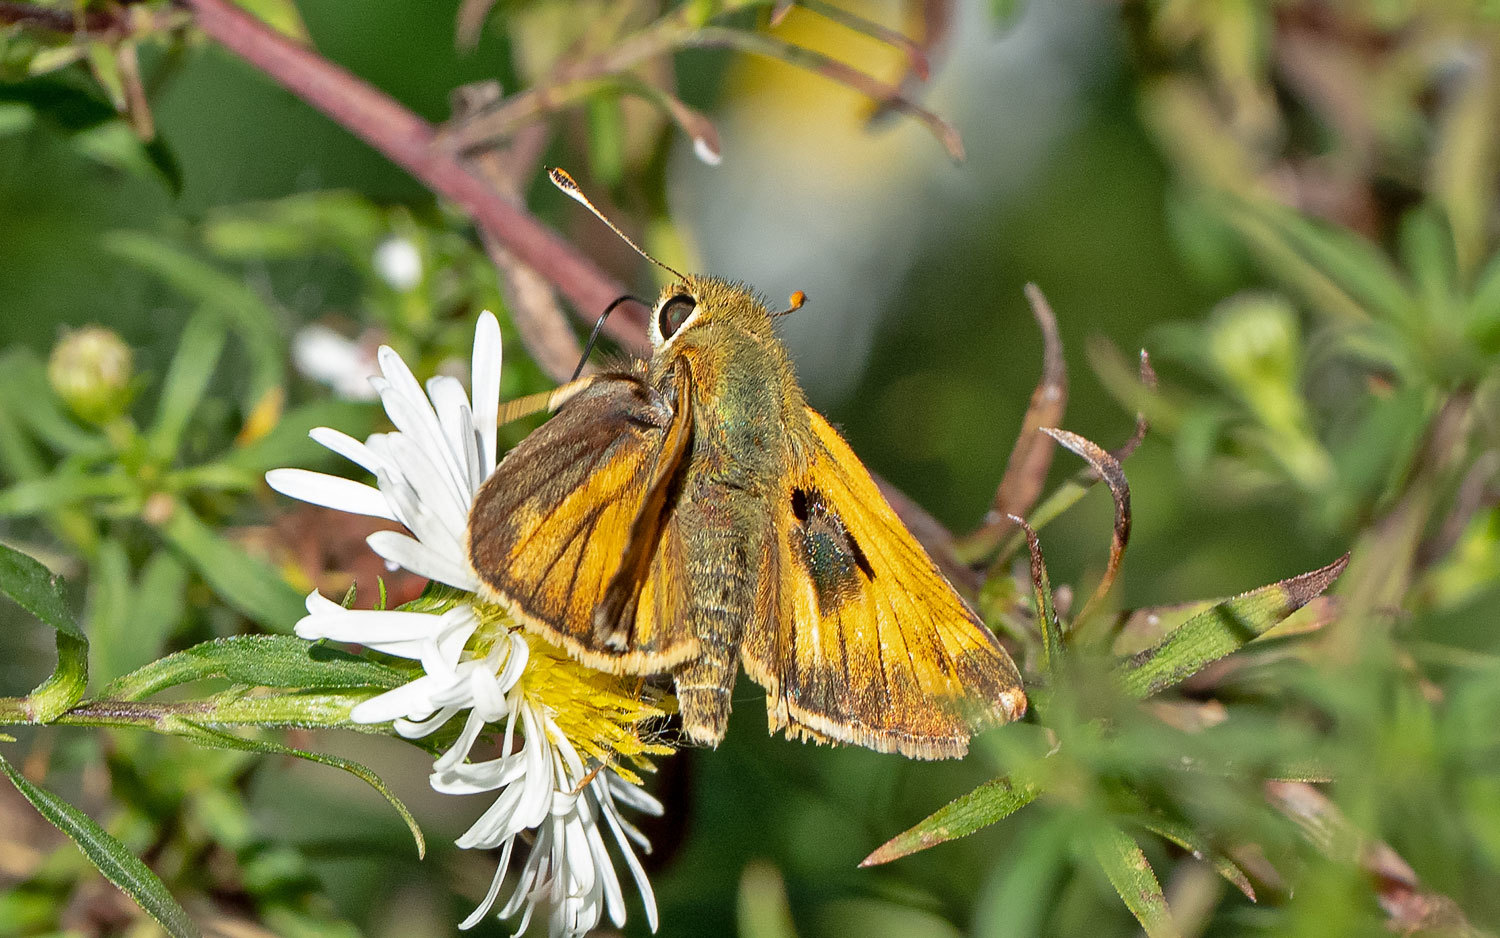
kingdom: Animalia
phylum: Arthropoda
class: Insecta
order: Lepidoptera
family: Hesperiidae
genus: Atalopedes
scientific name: Atalopedes
